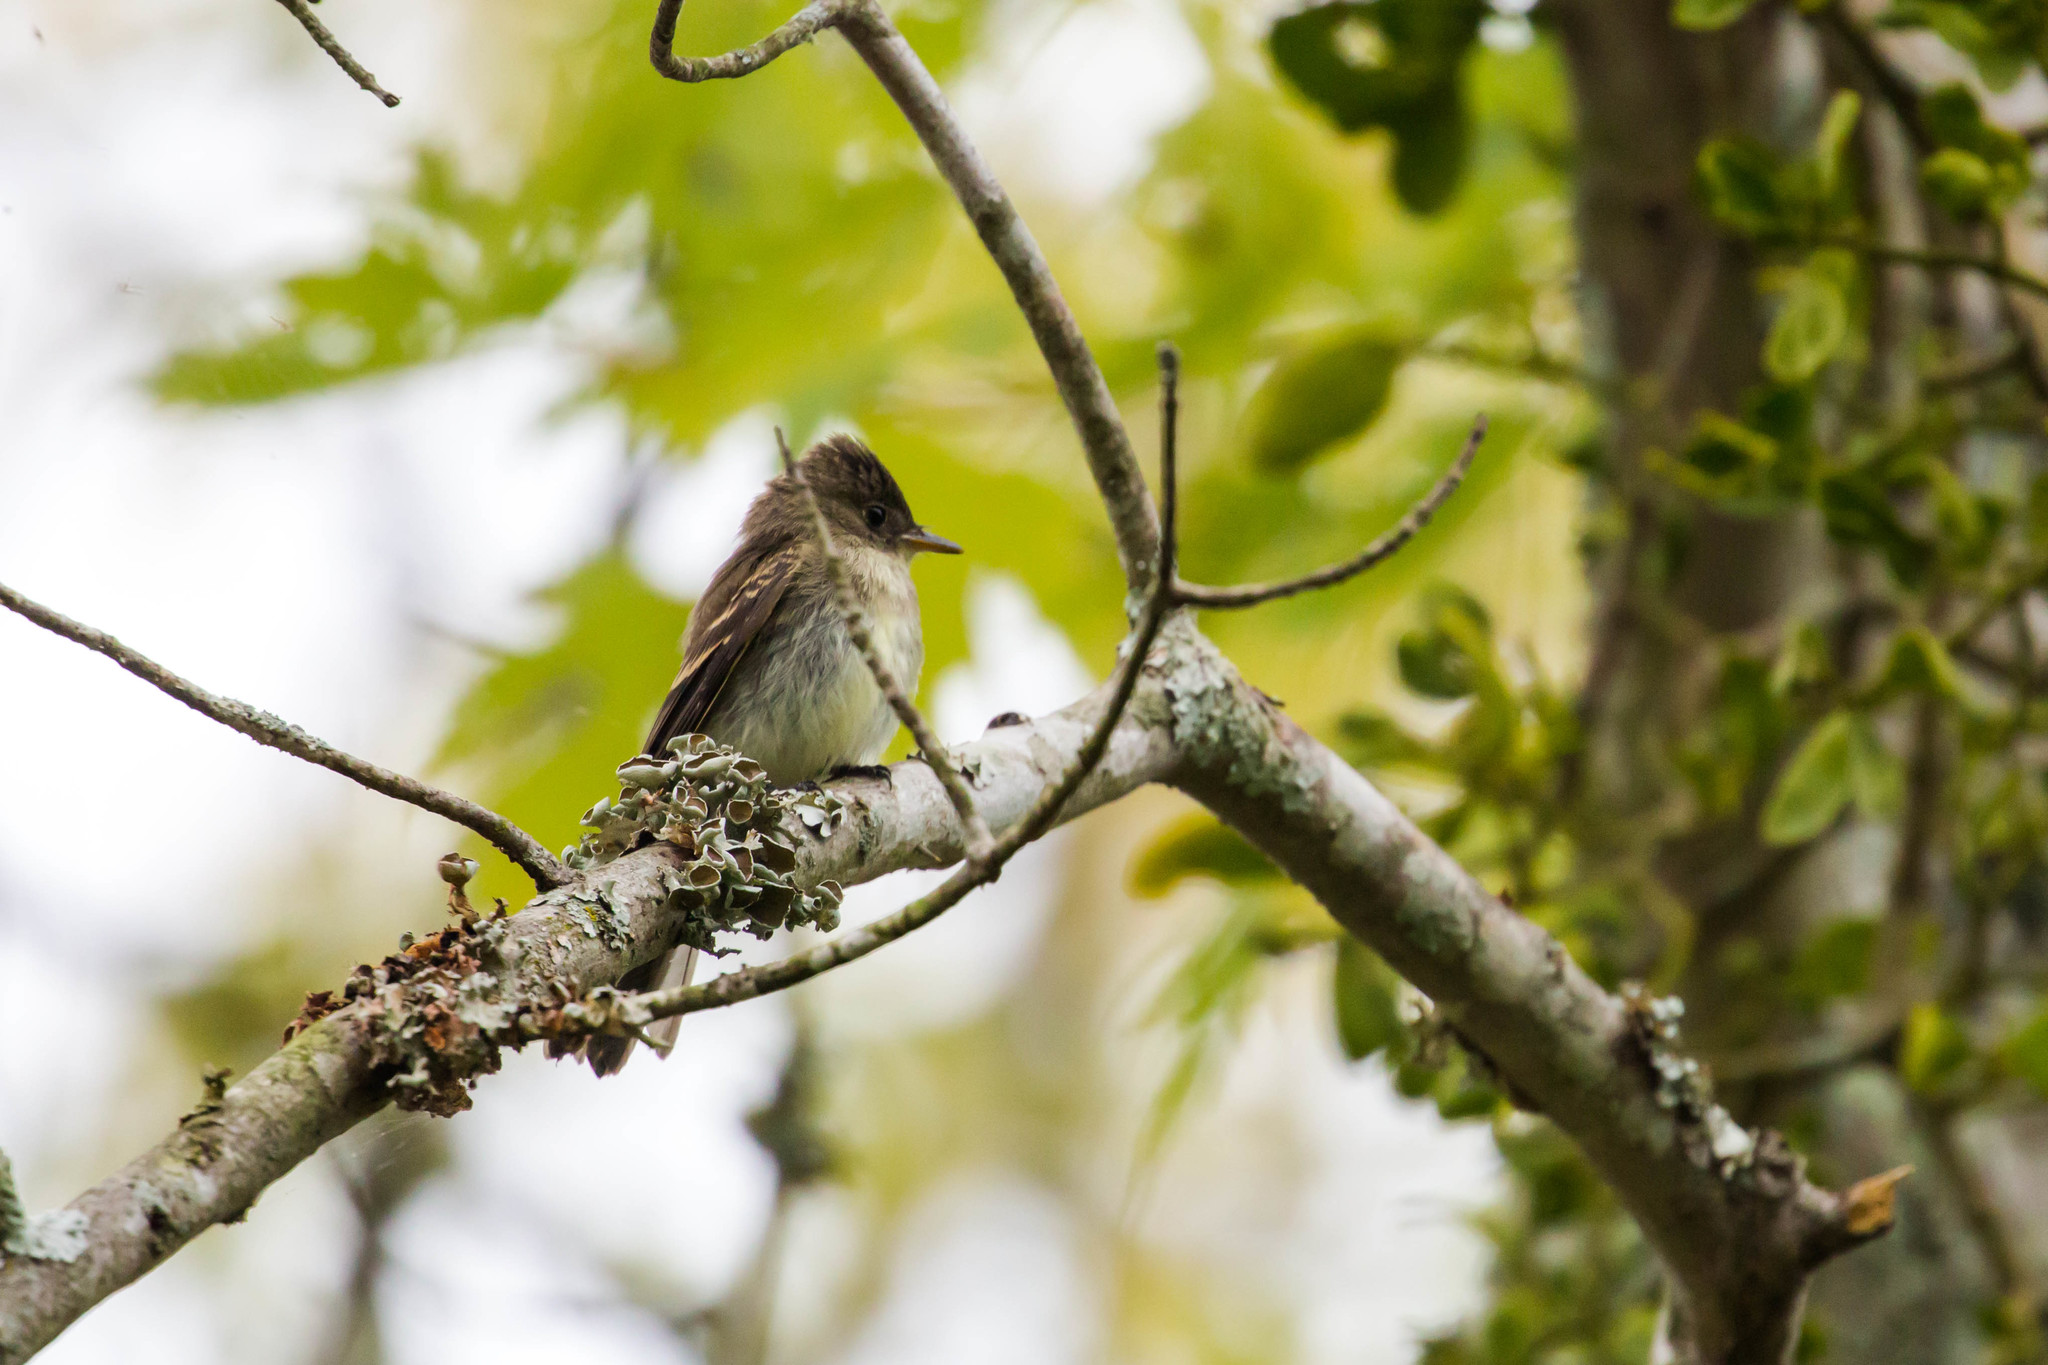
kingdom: Animalia
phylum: Chordata
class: Aves
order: Passeriformes
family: Tyrannidae
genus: Contopus
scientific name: Contopus virens
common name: Eastern wood-pewee
